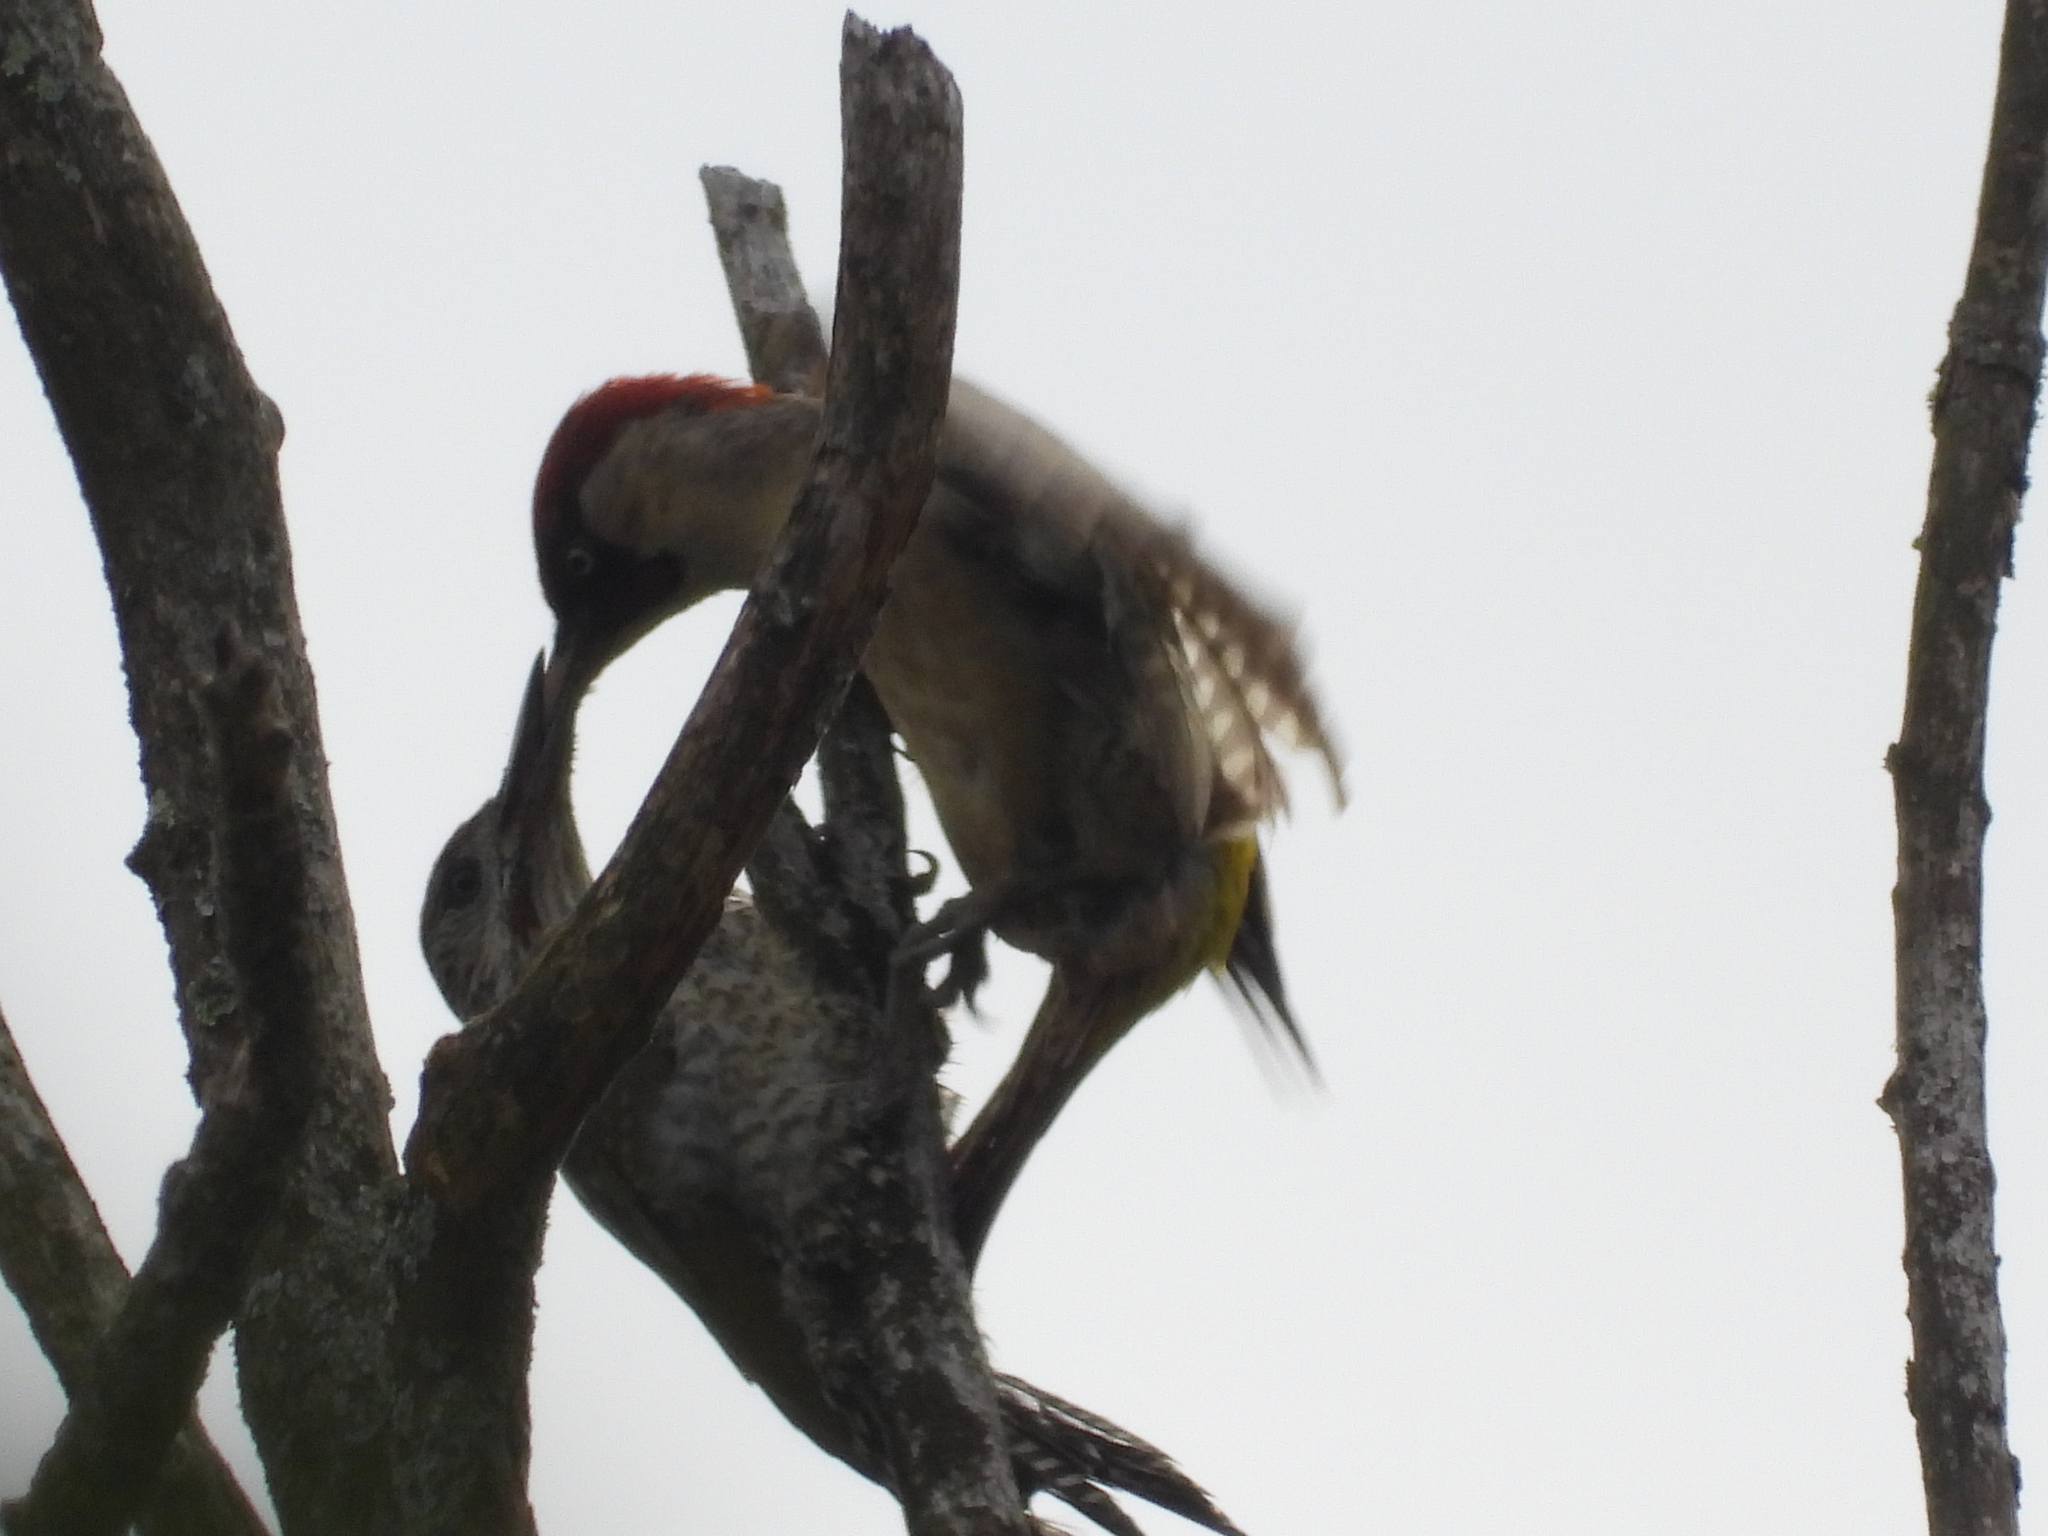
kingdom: Animalia
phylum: Chordata
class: Aves
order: Piciformes
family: Picidae
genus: Picus
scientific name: Picus viridis
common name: European green woodpecker
